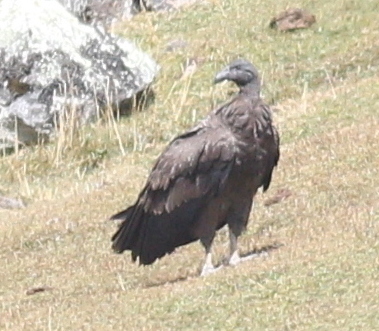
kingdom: Animalia
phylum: Chordata
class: Aves
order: Accipitriformes
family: Cathartidae
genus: Vultur
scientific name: Vultur gryphus
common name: Andean condor
